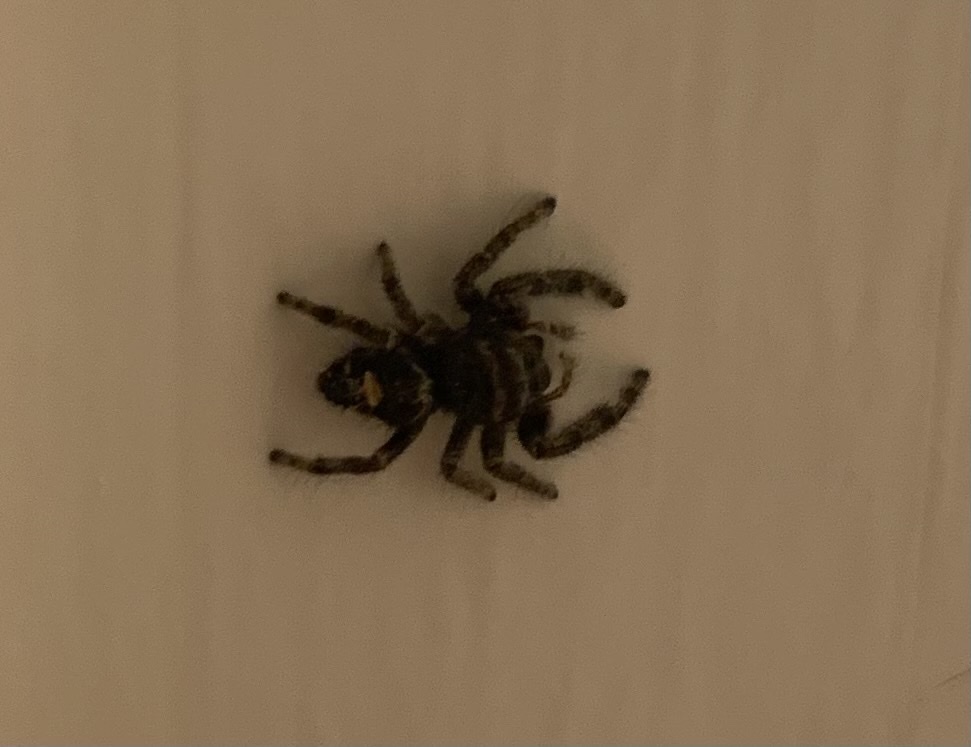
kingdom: Animalia
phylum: Arthropoda
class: Arachnida
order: Araneae
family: Salticidae
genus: Phidippus
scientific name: Phidippus audax
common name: Bold jumper
